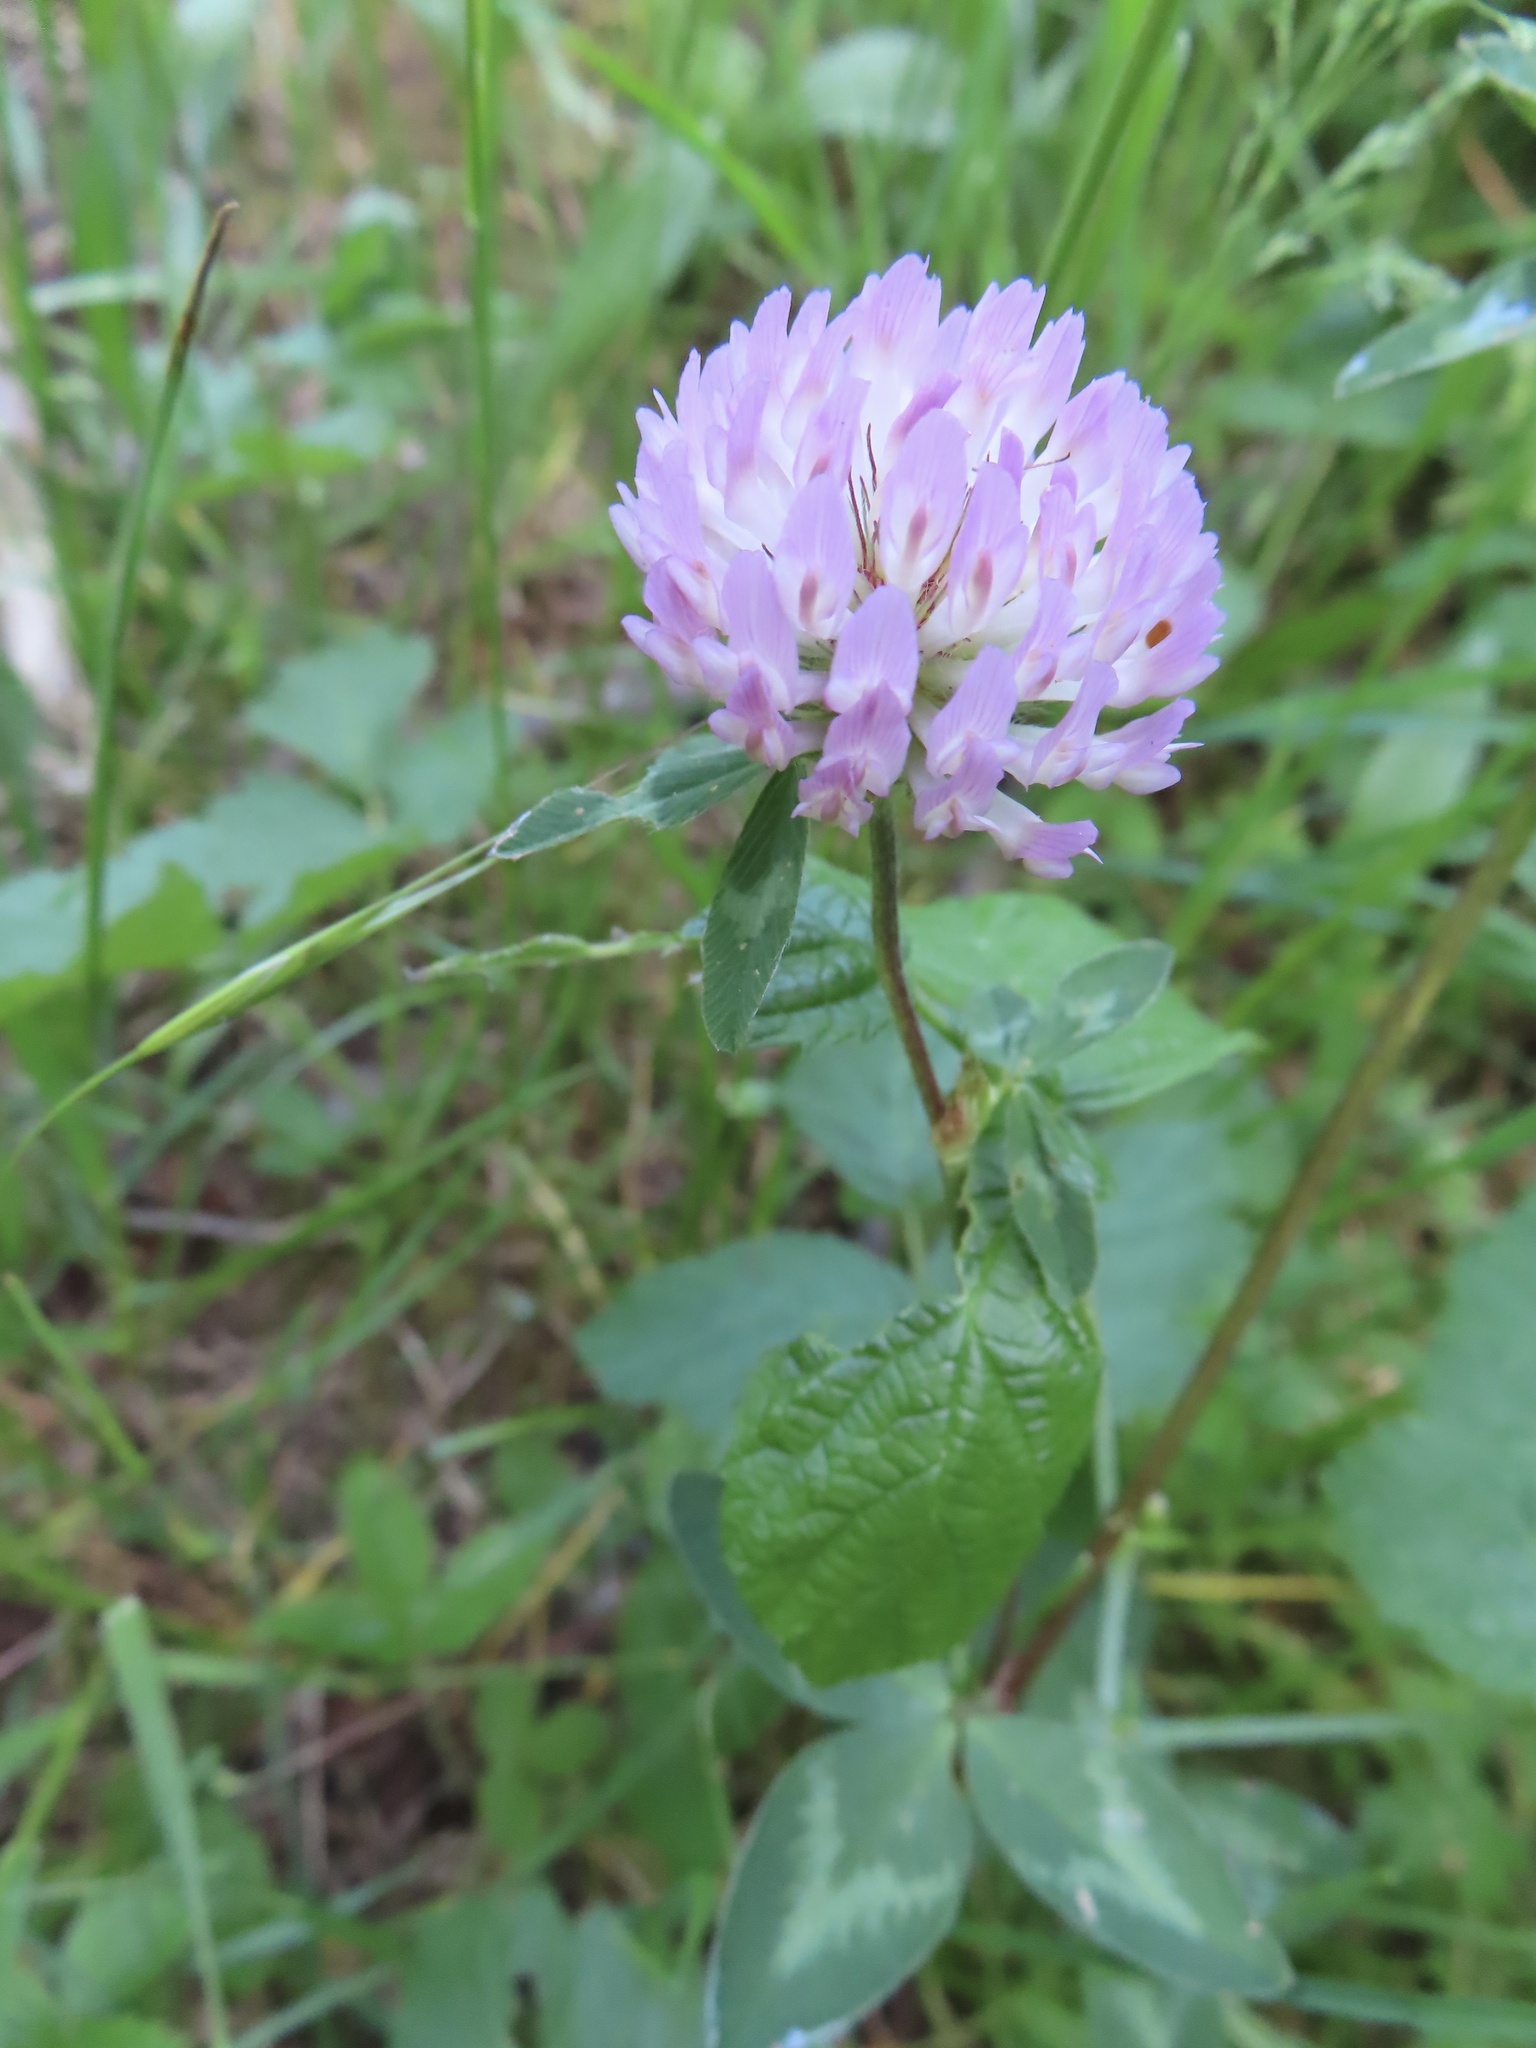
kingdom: Plantae
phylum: Tracheophyta
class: Magnoliopsida
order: Fabales
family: Fabaceae
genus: Trifolium
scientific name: Trifolium pratense
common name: Red clover
